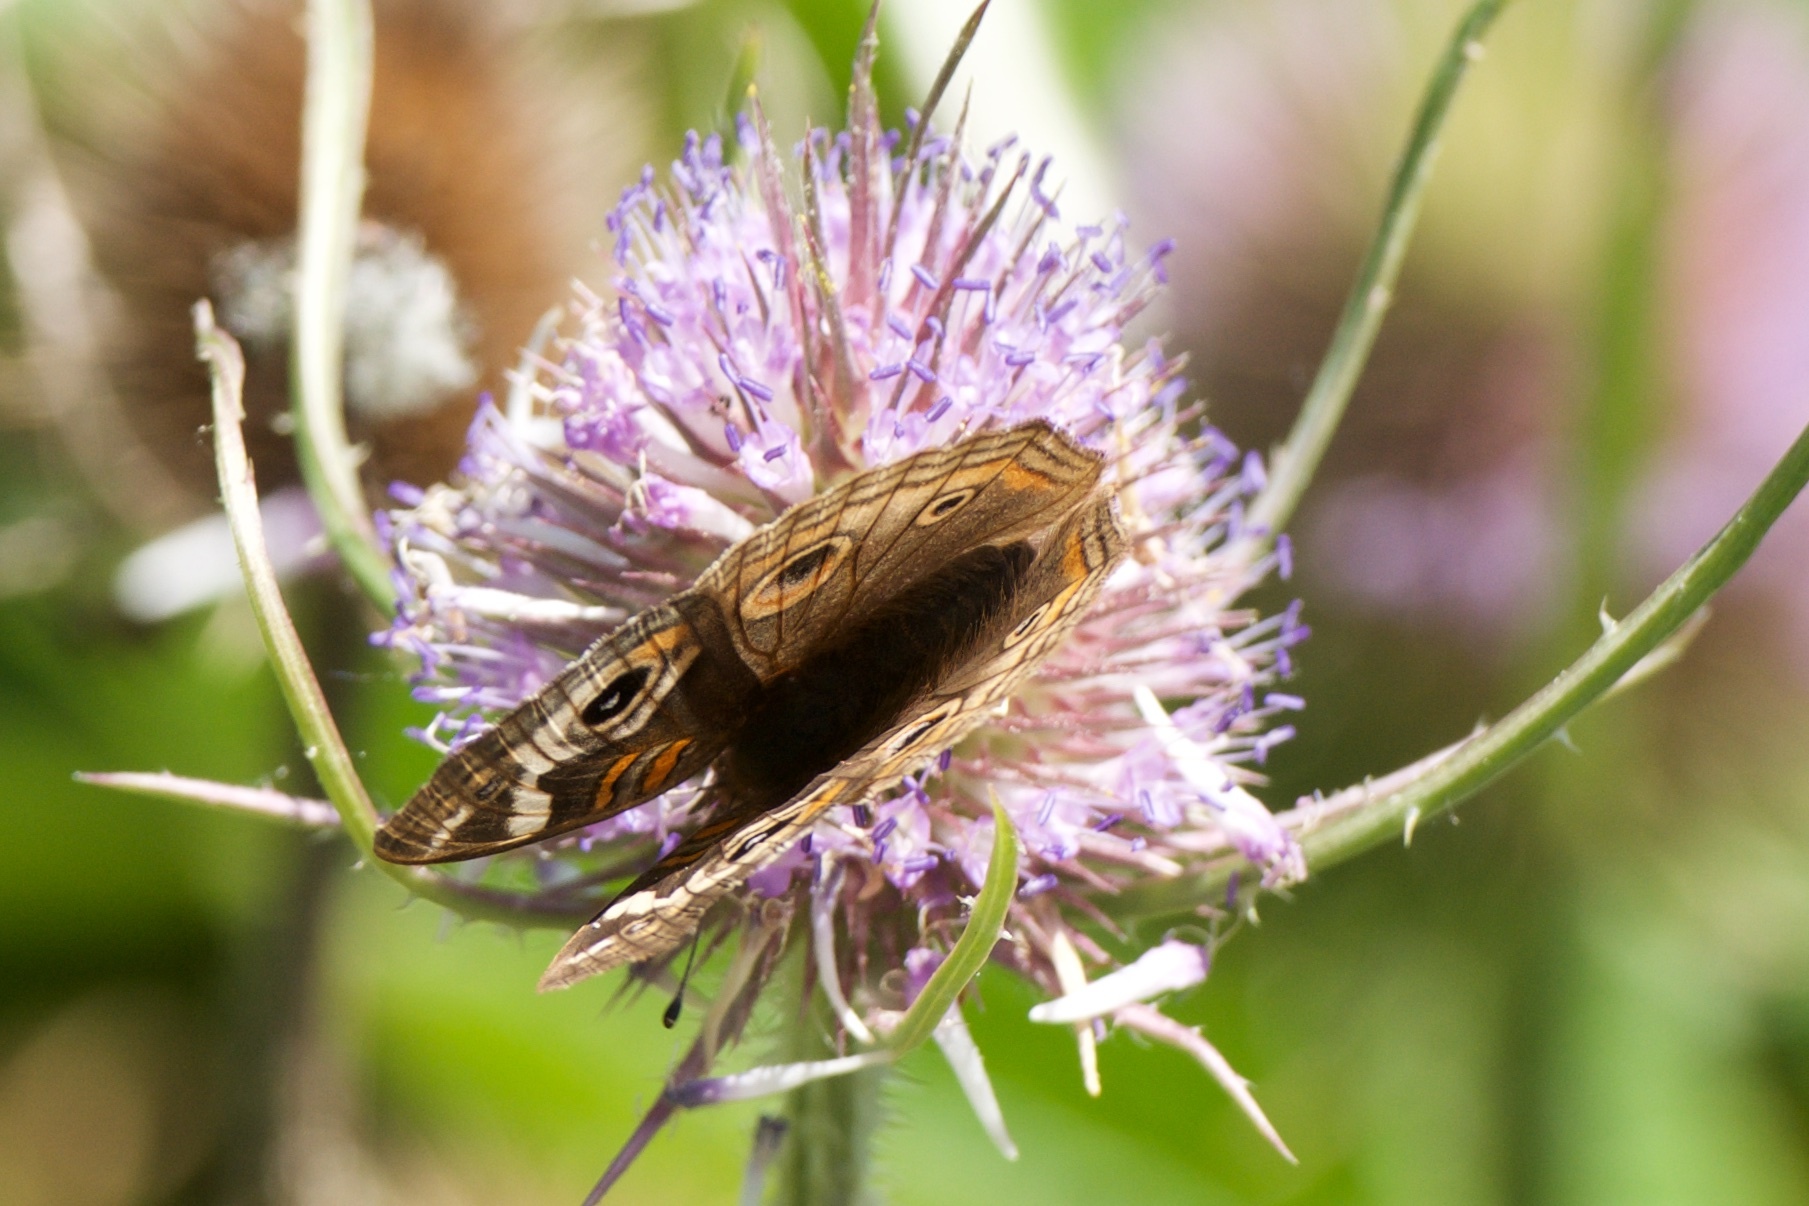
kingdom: Animalia
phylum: Arthropoda
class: Insecta
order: Lepidoptera
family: Nymphalidae
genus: Junonia
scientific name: Junonia grisea
